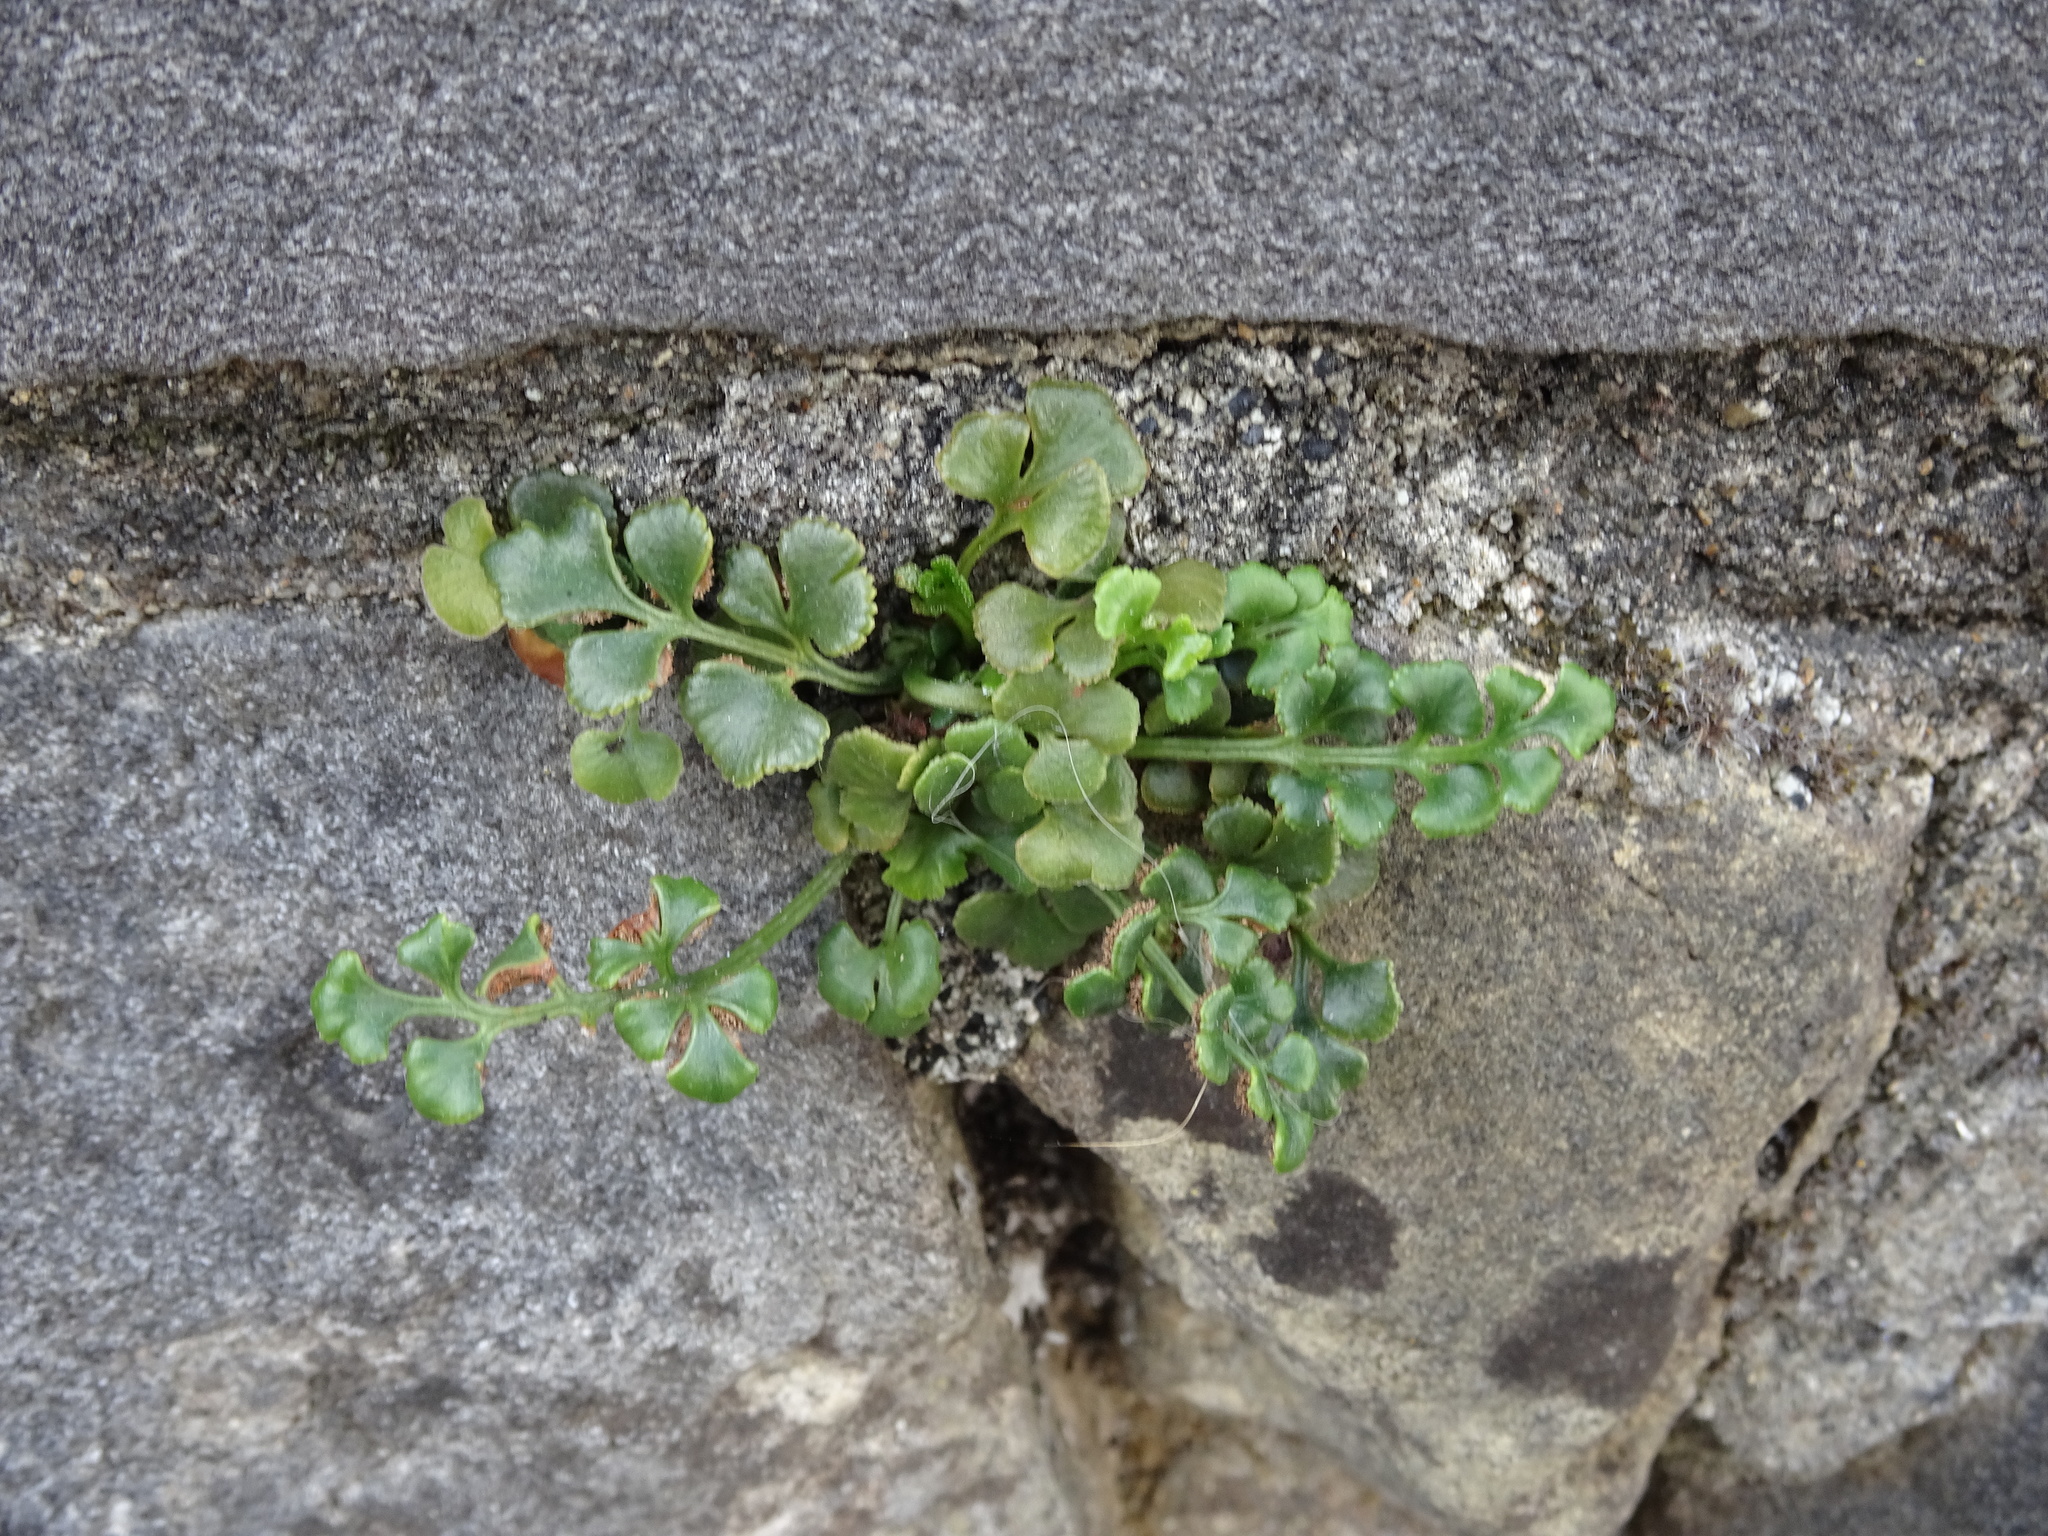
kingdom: Plantae
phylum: Tracheophyta
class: Polypodiopsida
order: Polypodiales
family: Aspleniaceae
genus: Asplenium
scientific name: Asplenium ruta-muraria
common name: Wall-rue
